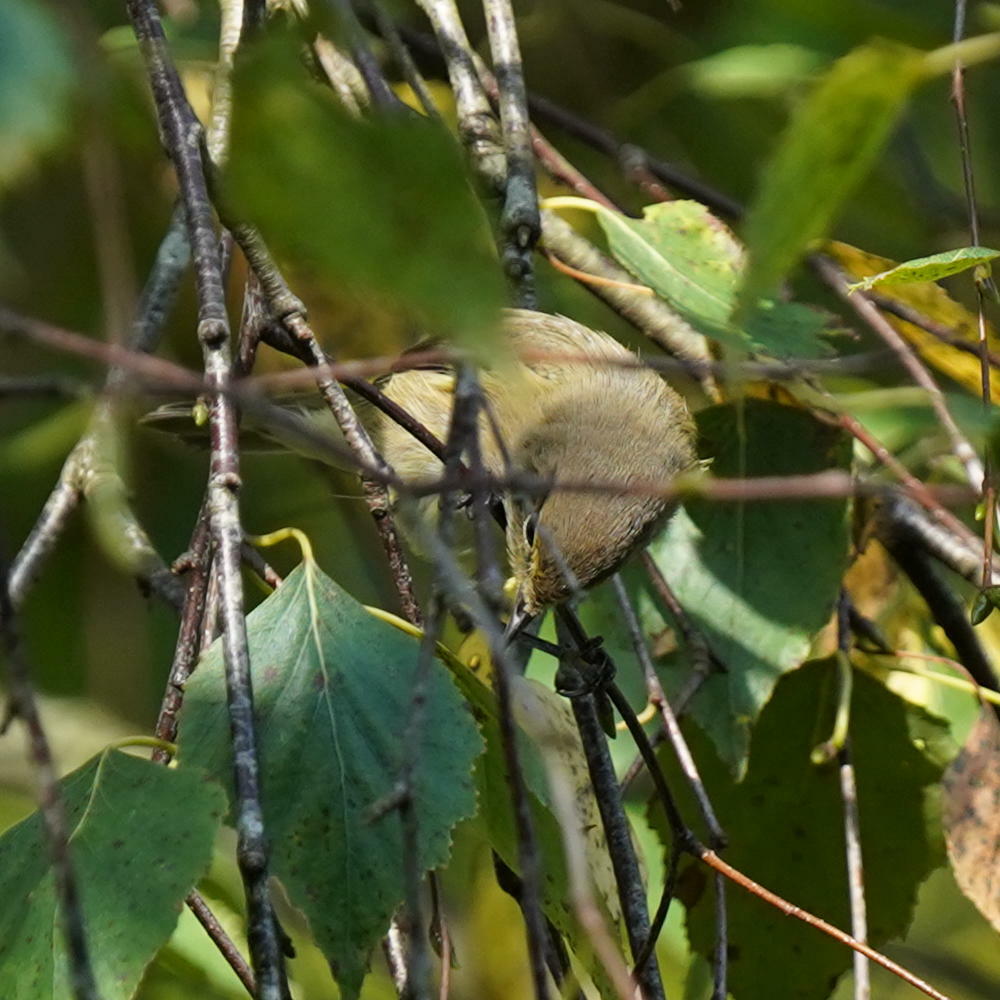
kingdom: Animalia
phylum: Chordata
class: Aves
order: Passeriformes
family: Phylloscopidae
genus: Phylloscopus
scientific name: Phylloscopus collybita
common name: Common chiffchaff
